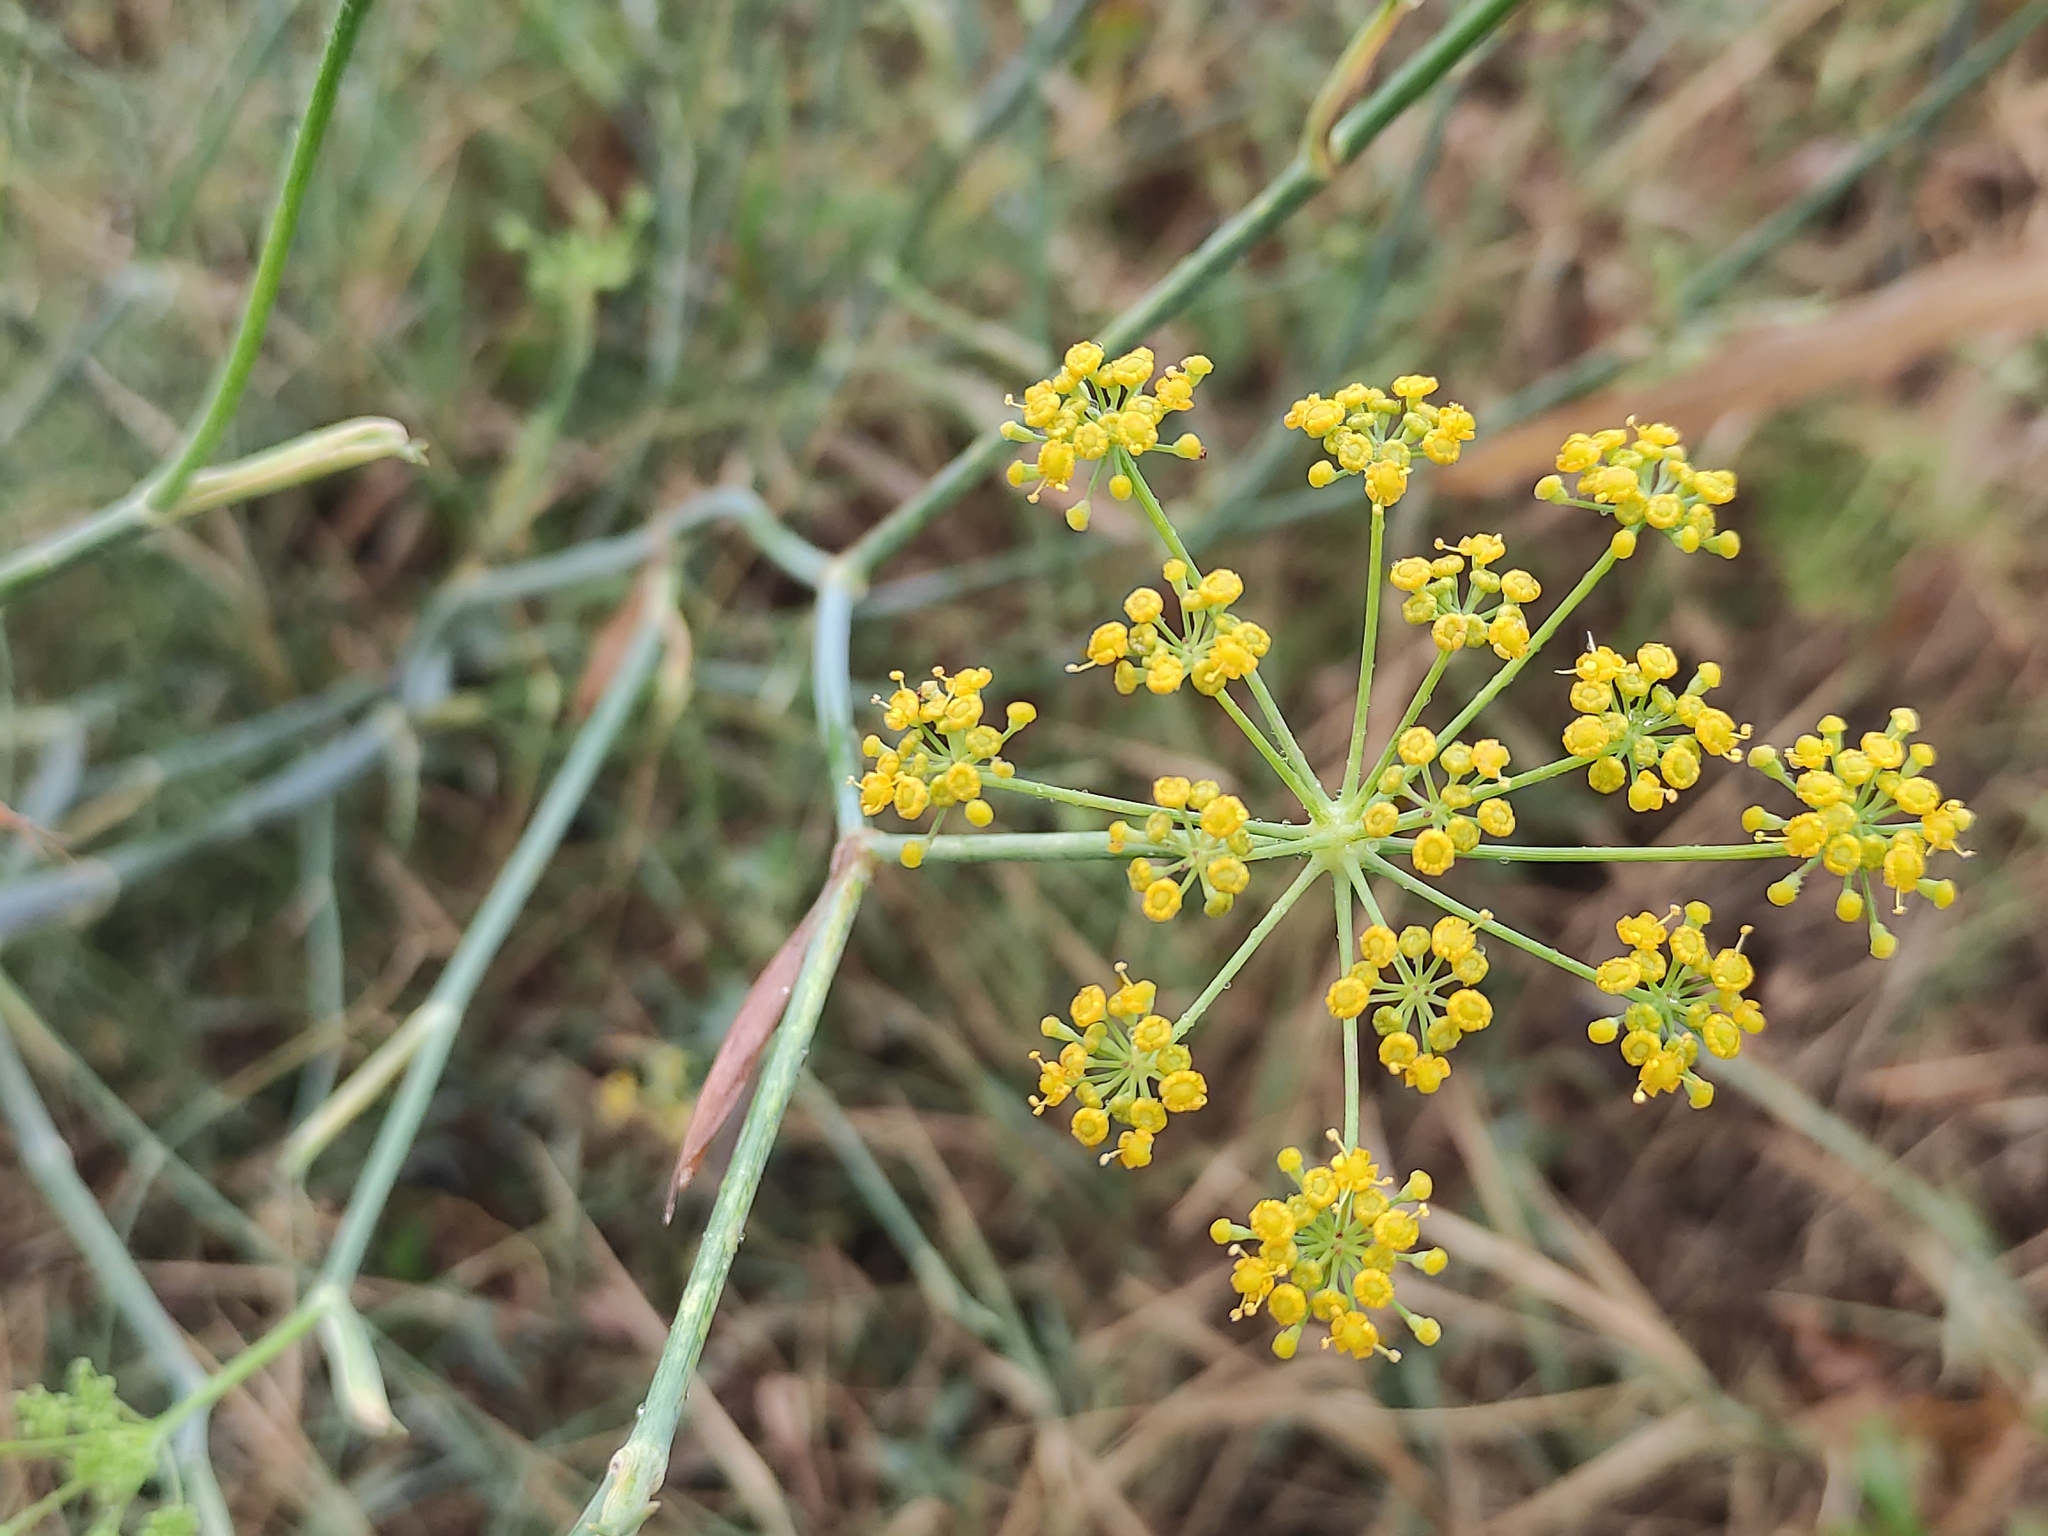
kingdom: Plantae
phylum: Tracheophyta
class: Magnoliopsida
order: Apiales
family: Apiaceae
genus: Foeniculum
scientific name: Foeniculum vulgare
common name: Fennel
